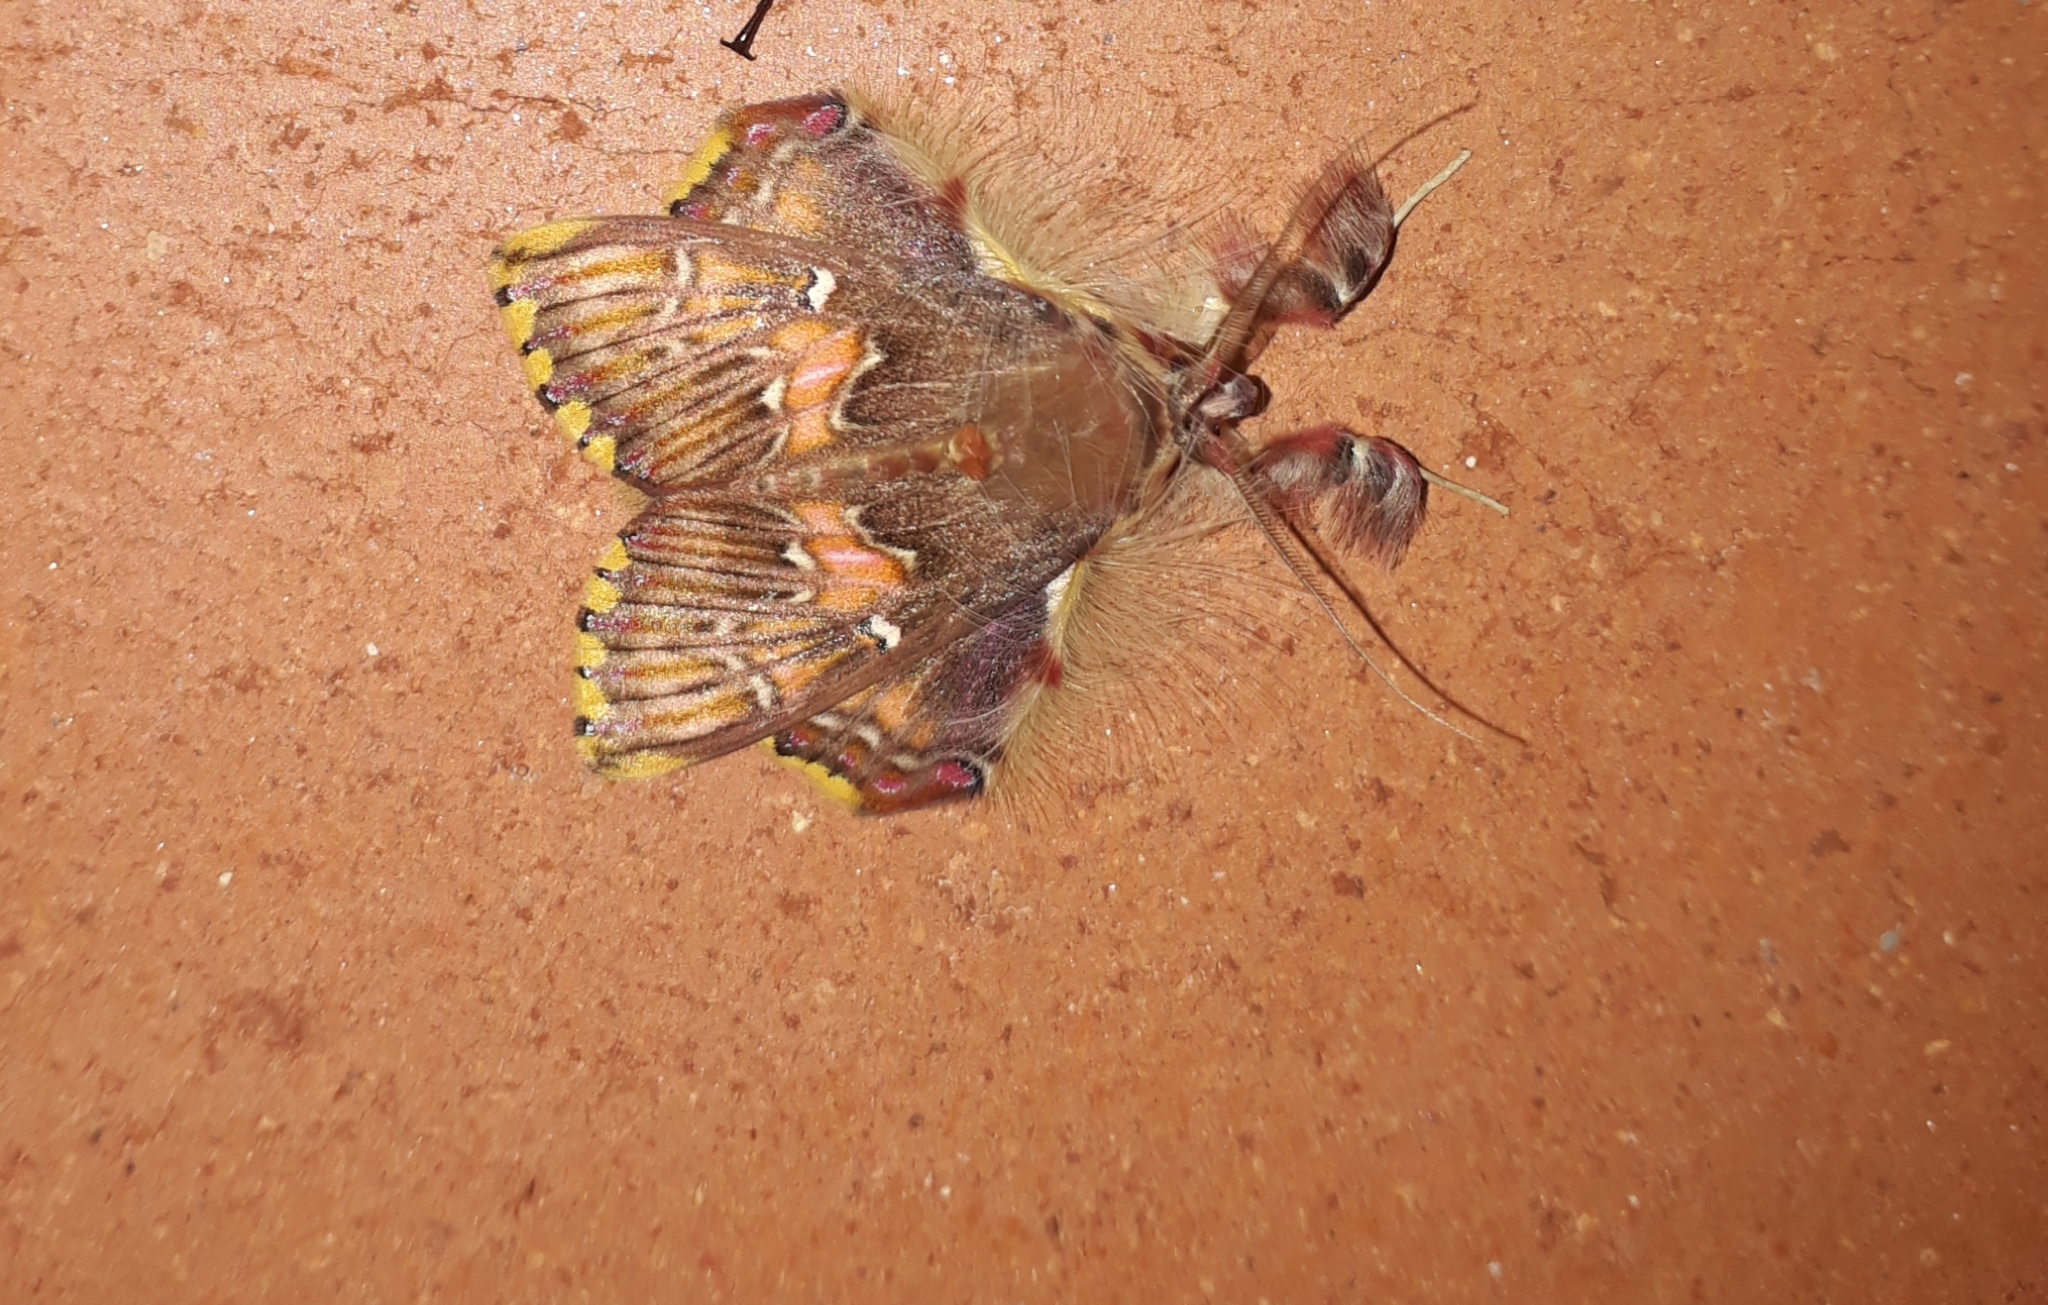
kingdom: Animalia
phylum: Arthropoda
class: Insecta
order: Lepidoptera
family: Erebidae
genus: Sosxetra
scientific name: Sosxetra grata
